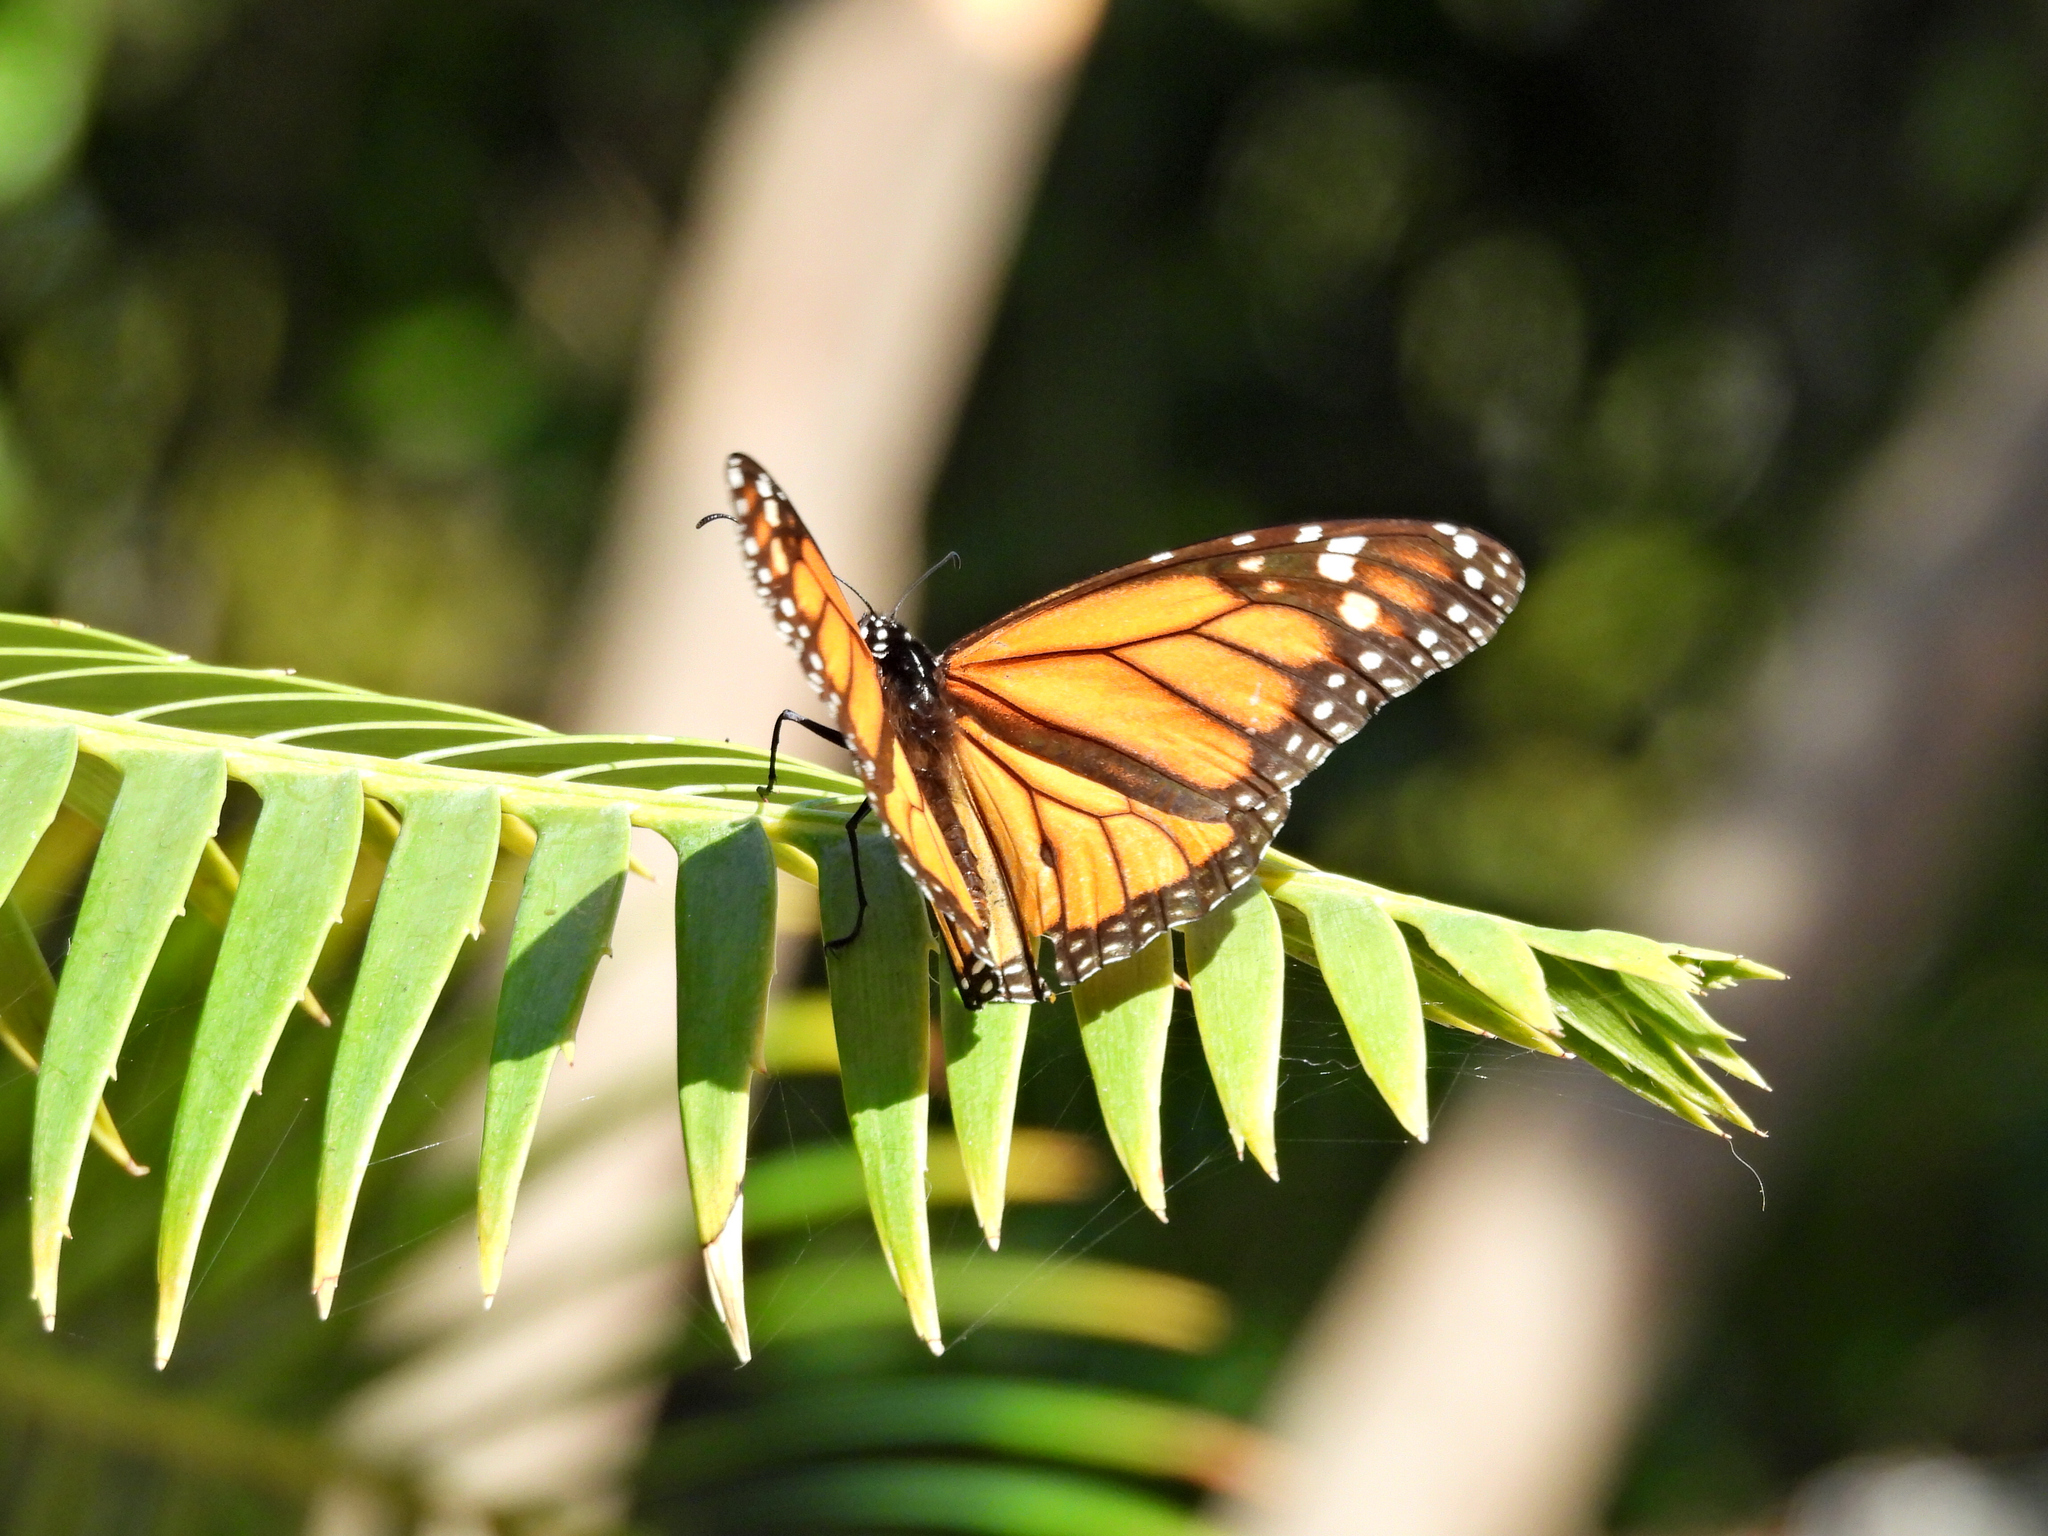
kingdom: Animalia
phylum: Arthropoda
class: Insecta
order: Lepidoptera
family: Nymphalidae
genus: Danaus
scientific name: Danaus plexippus
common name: Monarch
